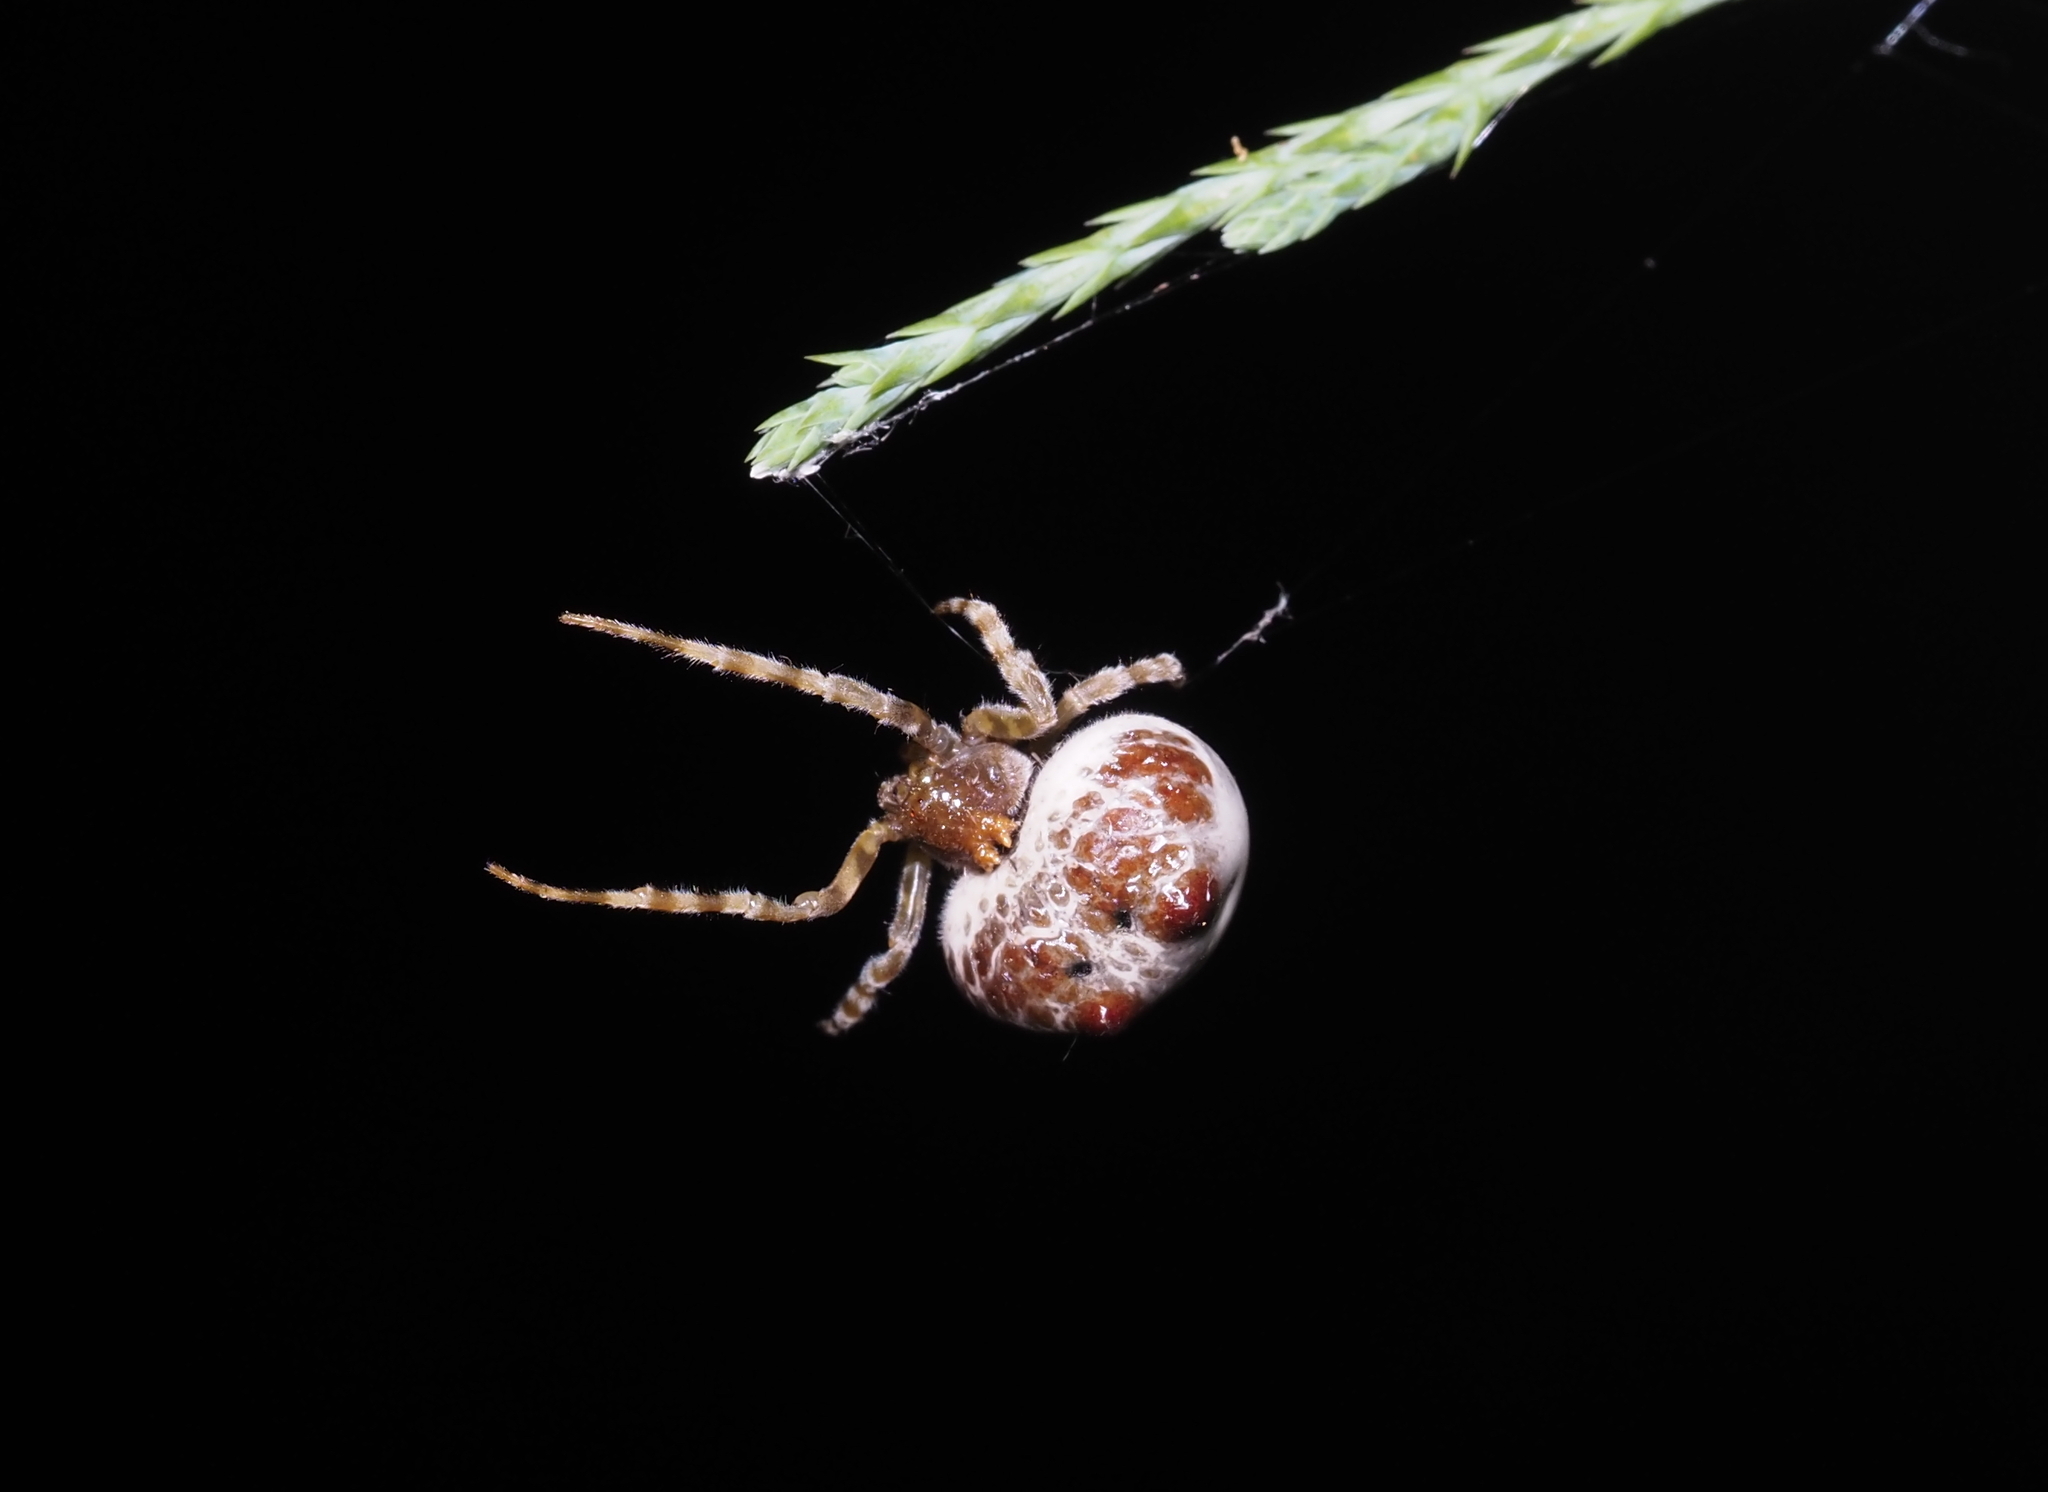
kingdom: Animalia
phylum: Arthropoda
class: Arachnida
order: Araneae
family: Araneidae
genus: Mastophora
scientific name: Mastophora hutchinsoni
